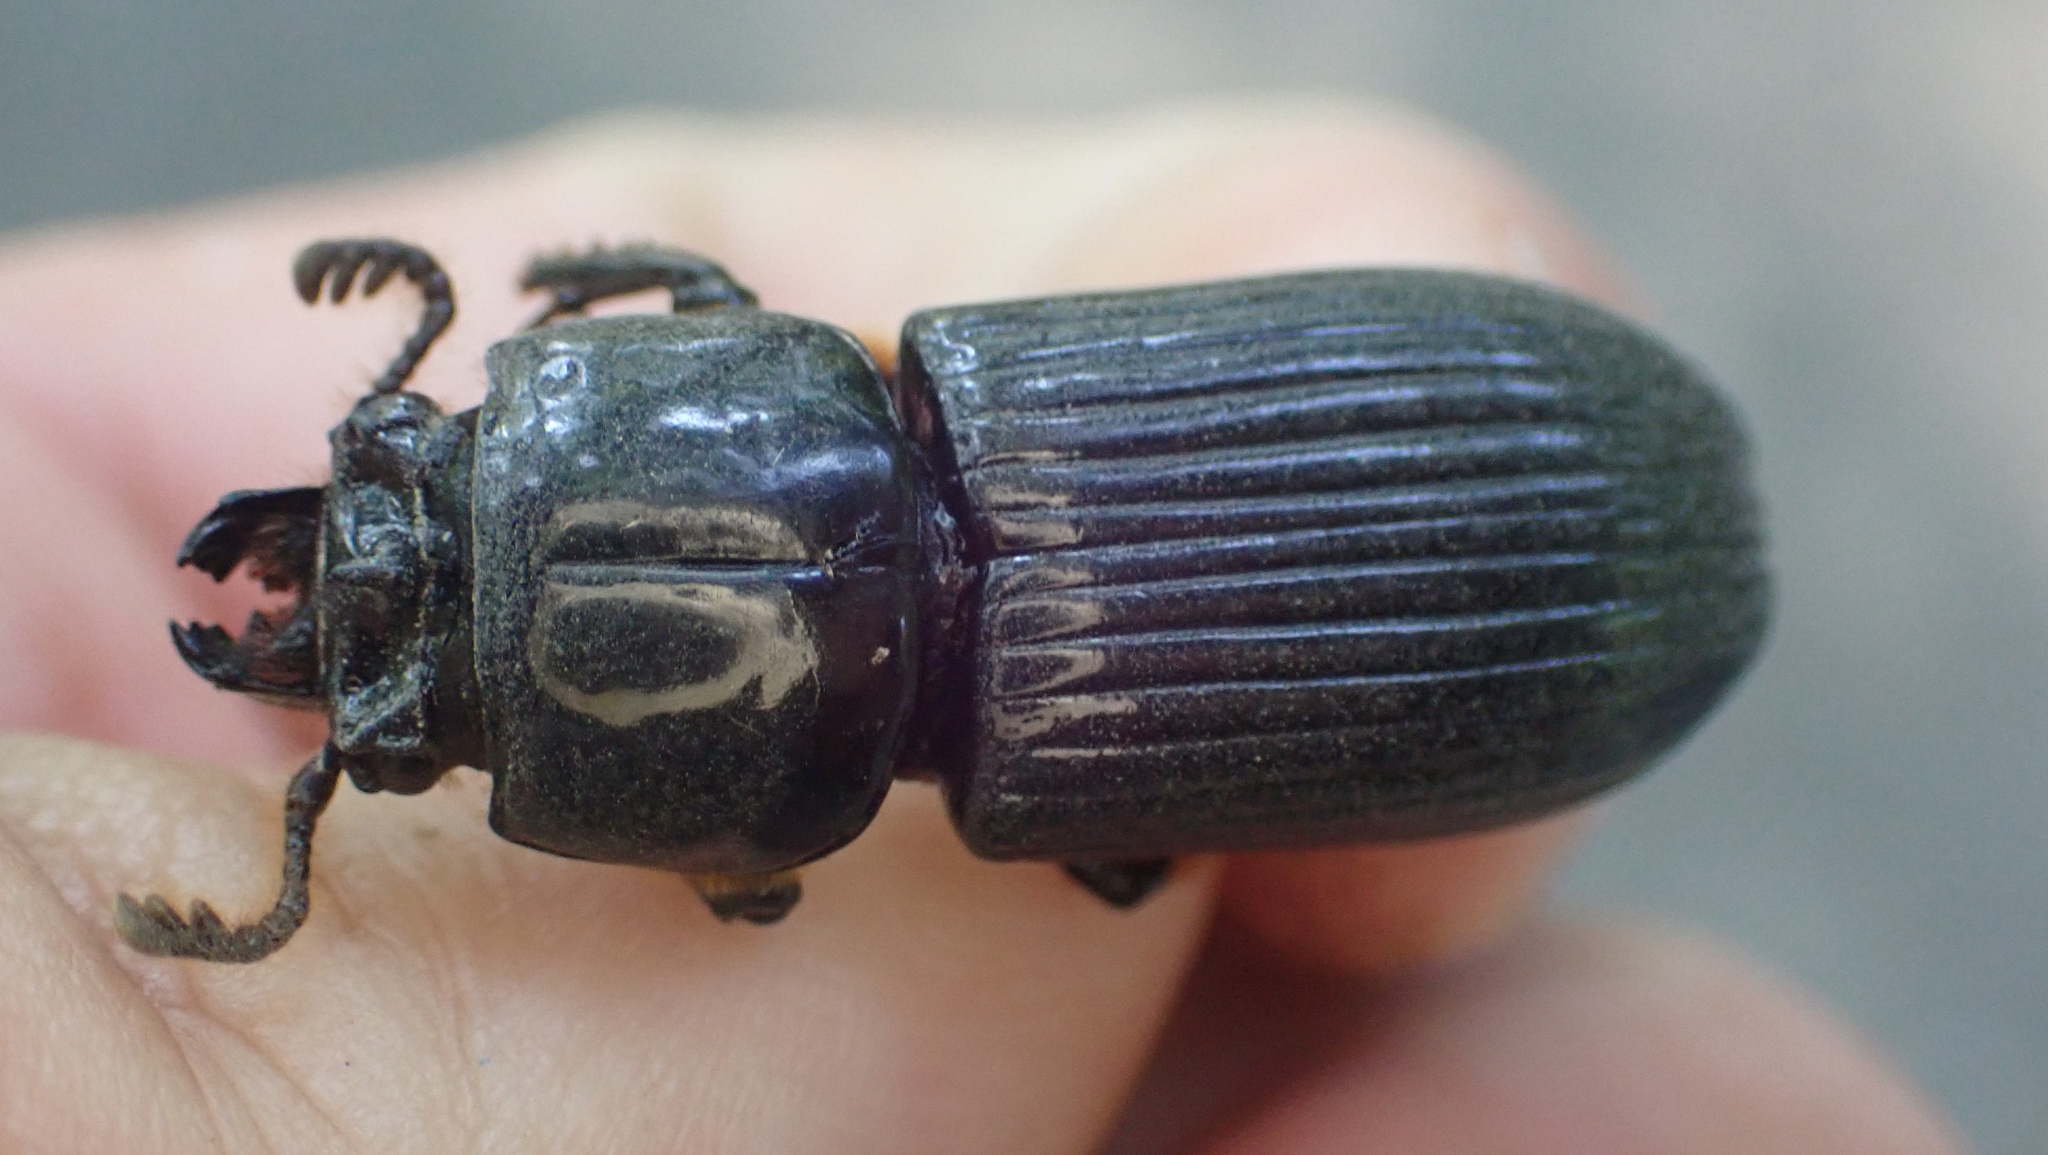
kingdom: Animalia
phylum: Arthropoda
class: Insecta
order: Coleoptera
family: Passalidae
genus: Odontotaenius
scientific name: Odontotaenius disjunctus
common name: Patent leather beetle
